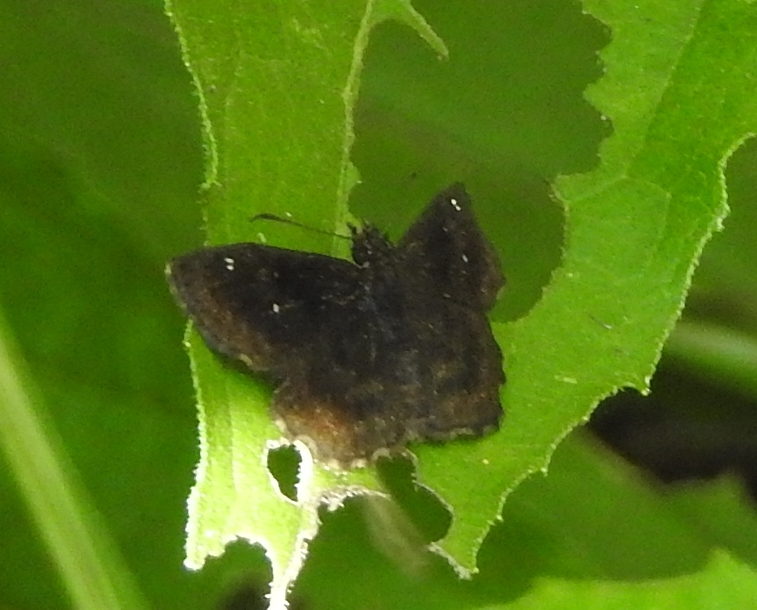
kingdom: Animalia
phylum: Arthropoda
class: Insecta
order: Lepidoptera
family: Hesperiidae
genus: Staphylus
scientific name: Staphylus mazans
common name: Mazans scallopwing
